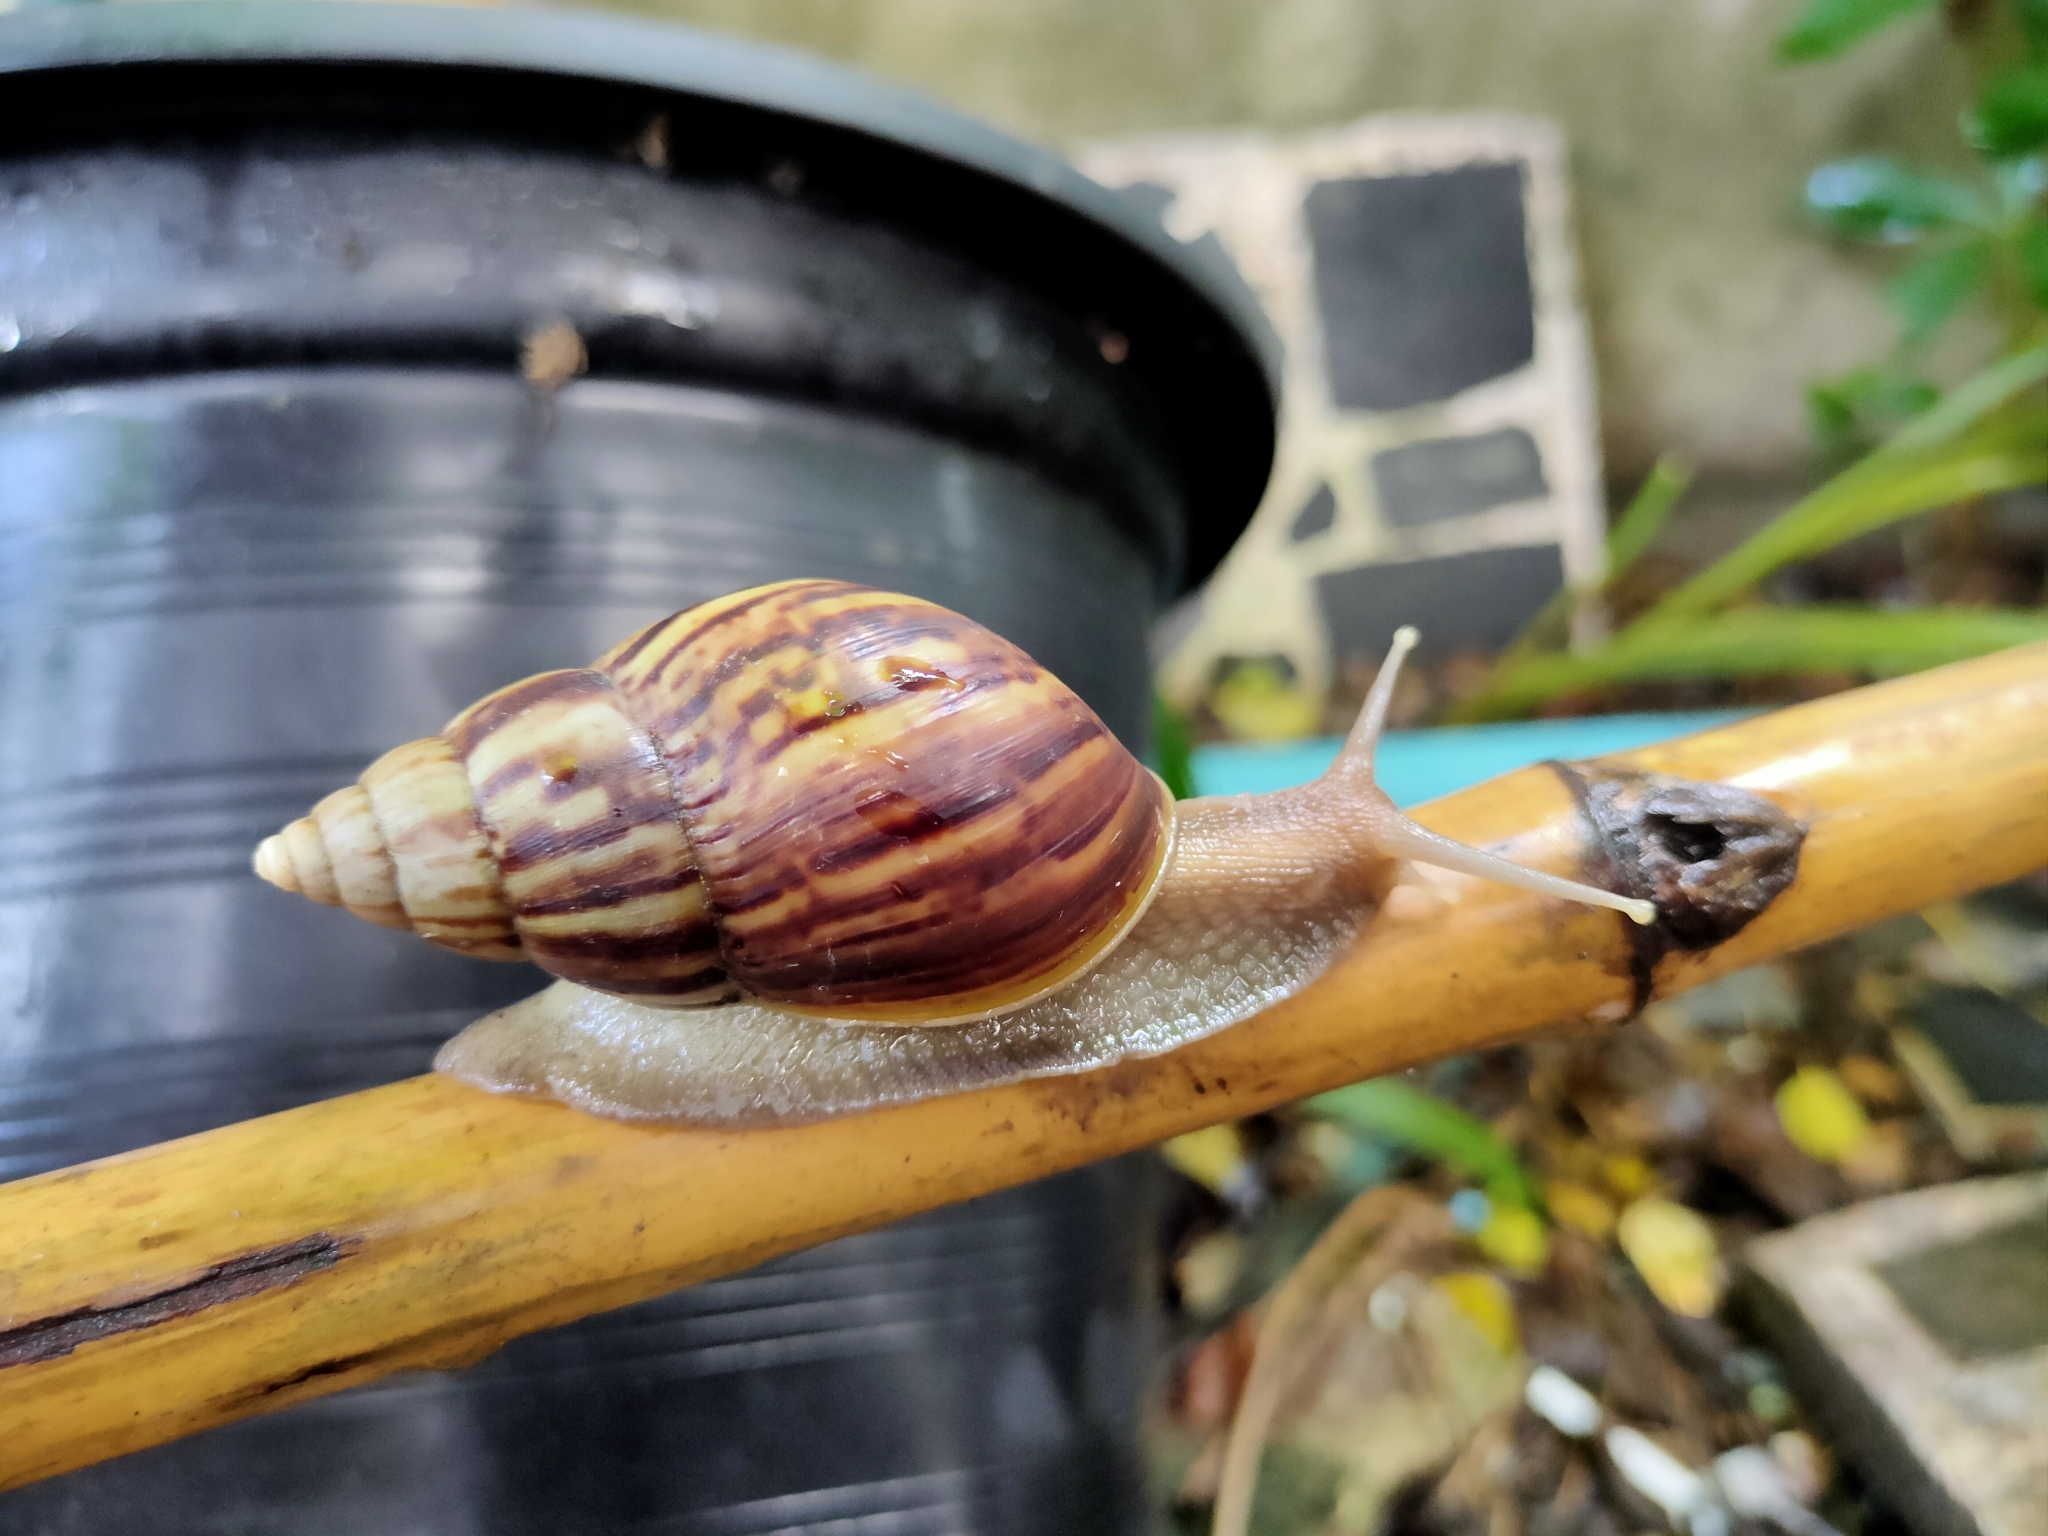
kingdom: Animalia
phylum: Mollusca
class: Gastropoda
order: Stylommatophora
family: Achatinidae
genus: Lissachatina
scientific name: Lissachatina fulica
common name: Giant african snail
